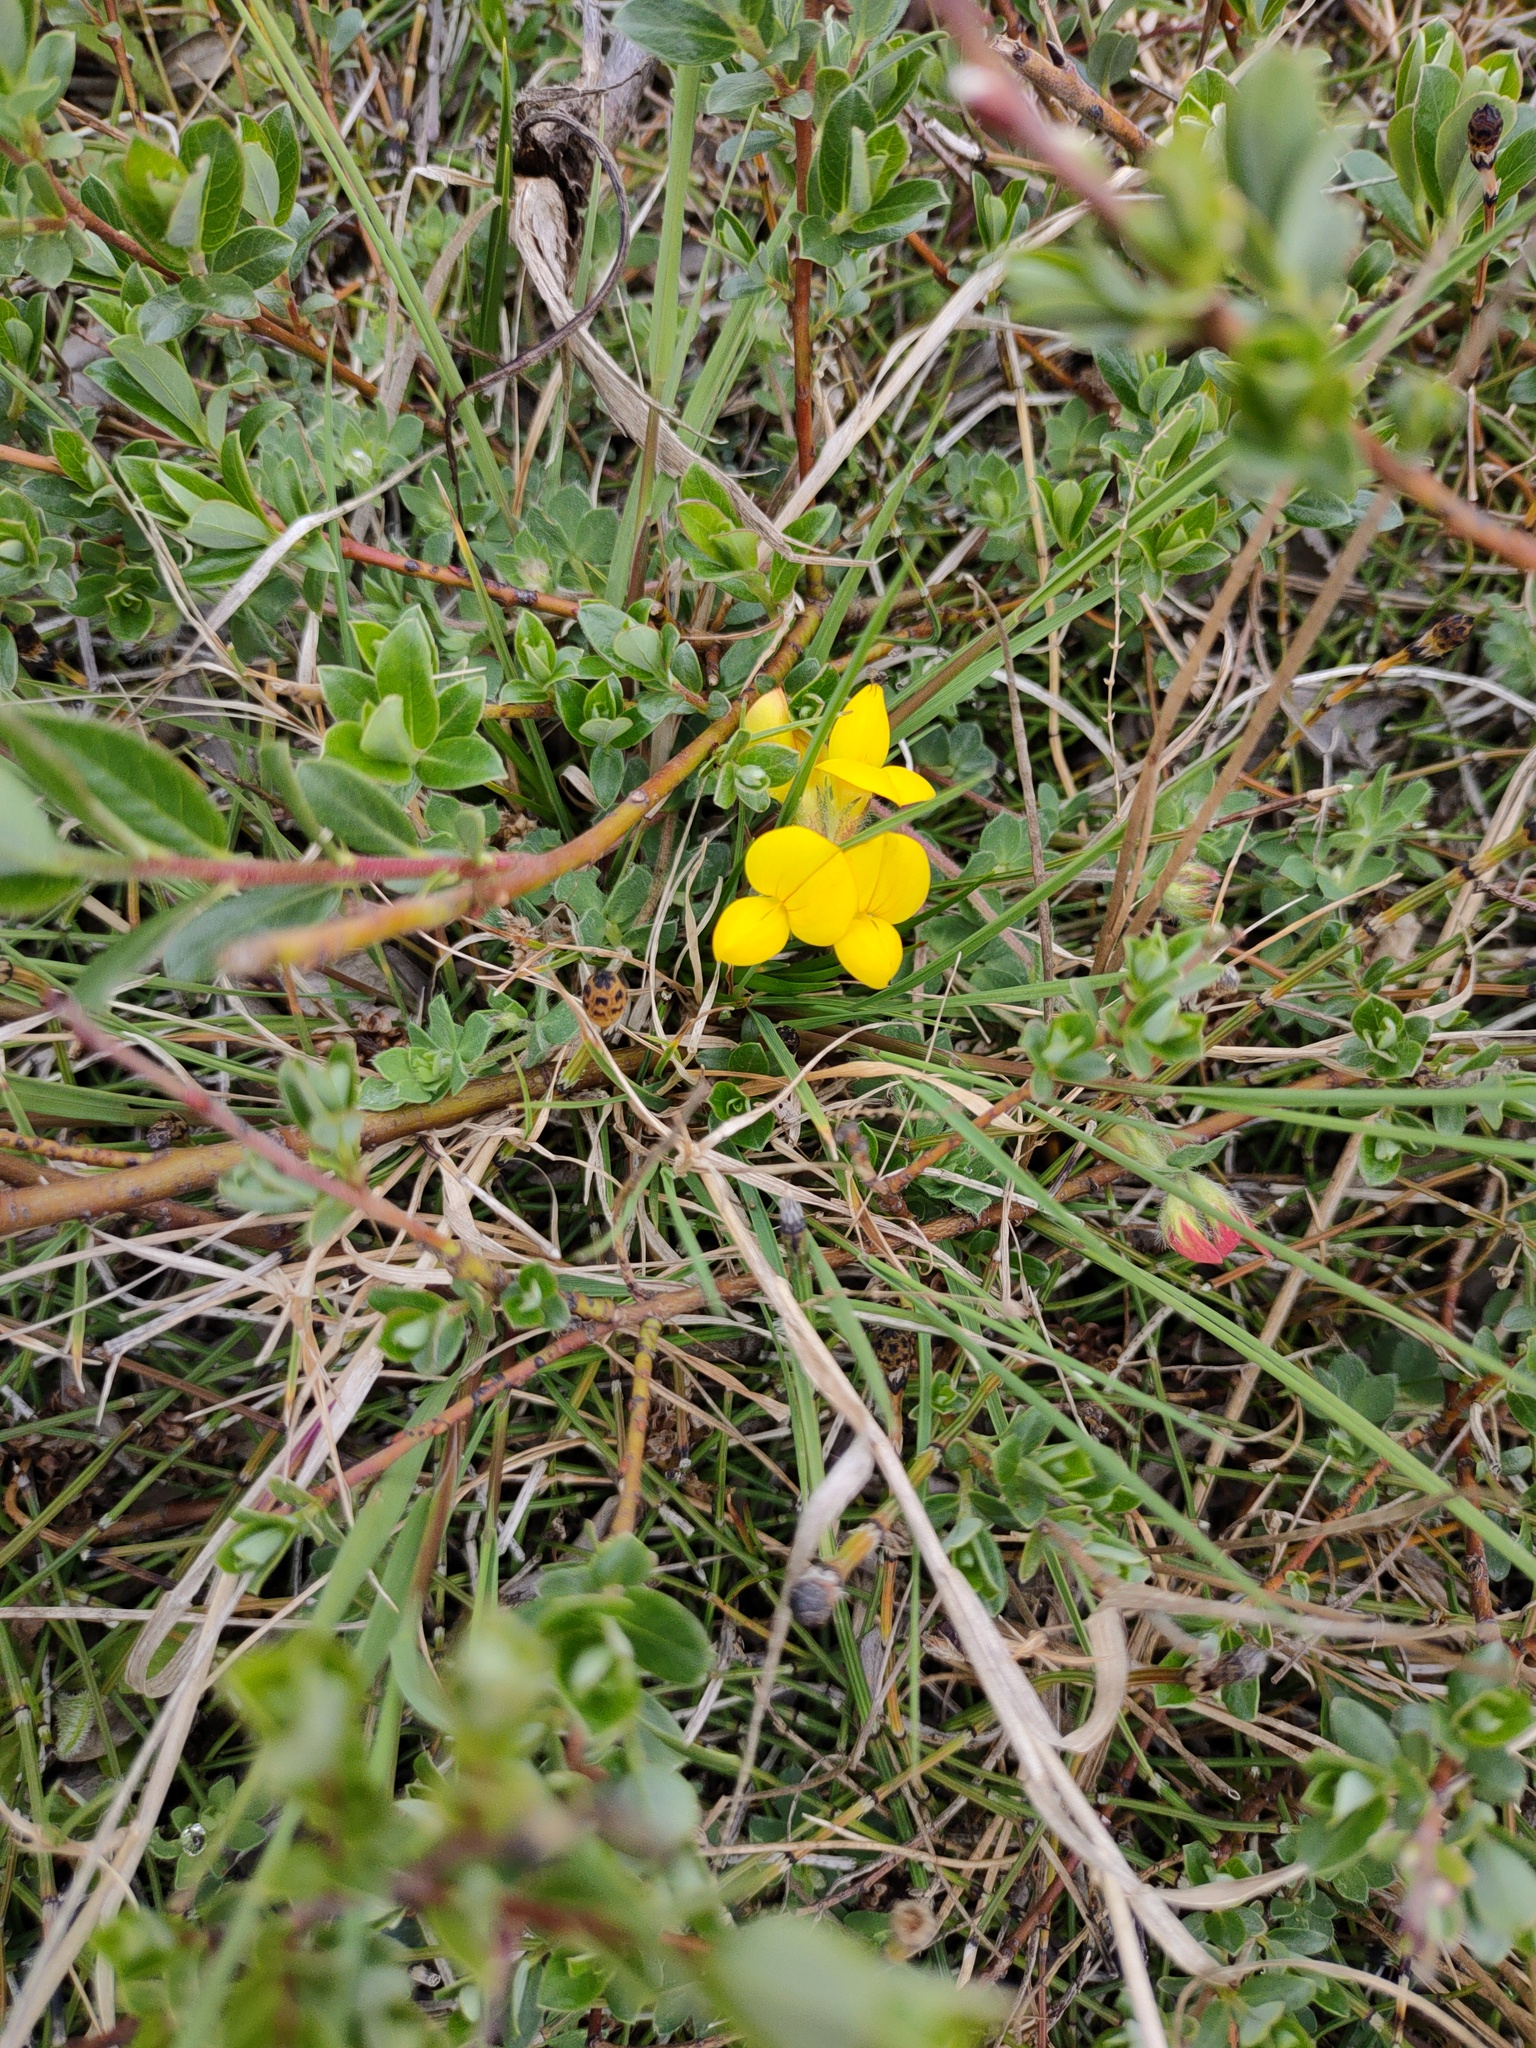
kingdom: Plantae
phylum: Tracheophyta
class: Magnoliopsida
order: Fabales
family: Fabaceae
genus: Lotus
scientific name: Lotus corniculatus
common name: Common bird's-foot-trefoil
